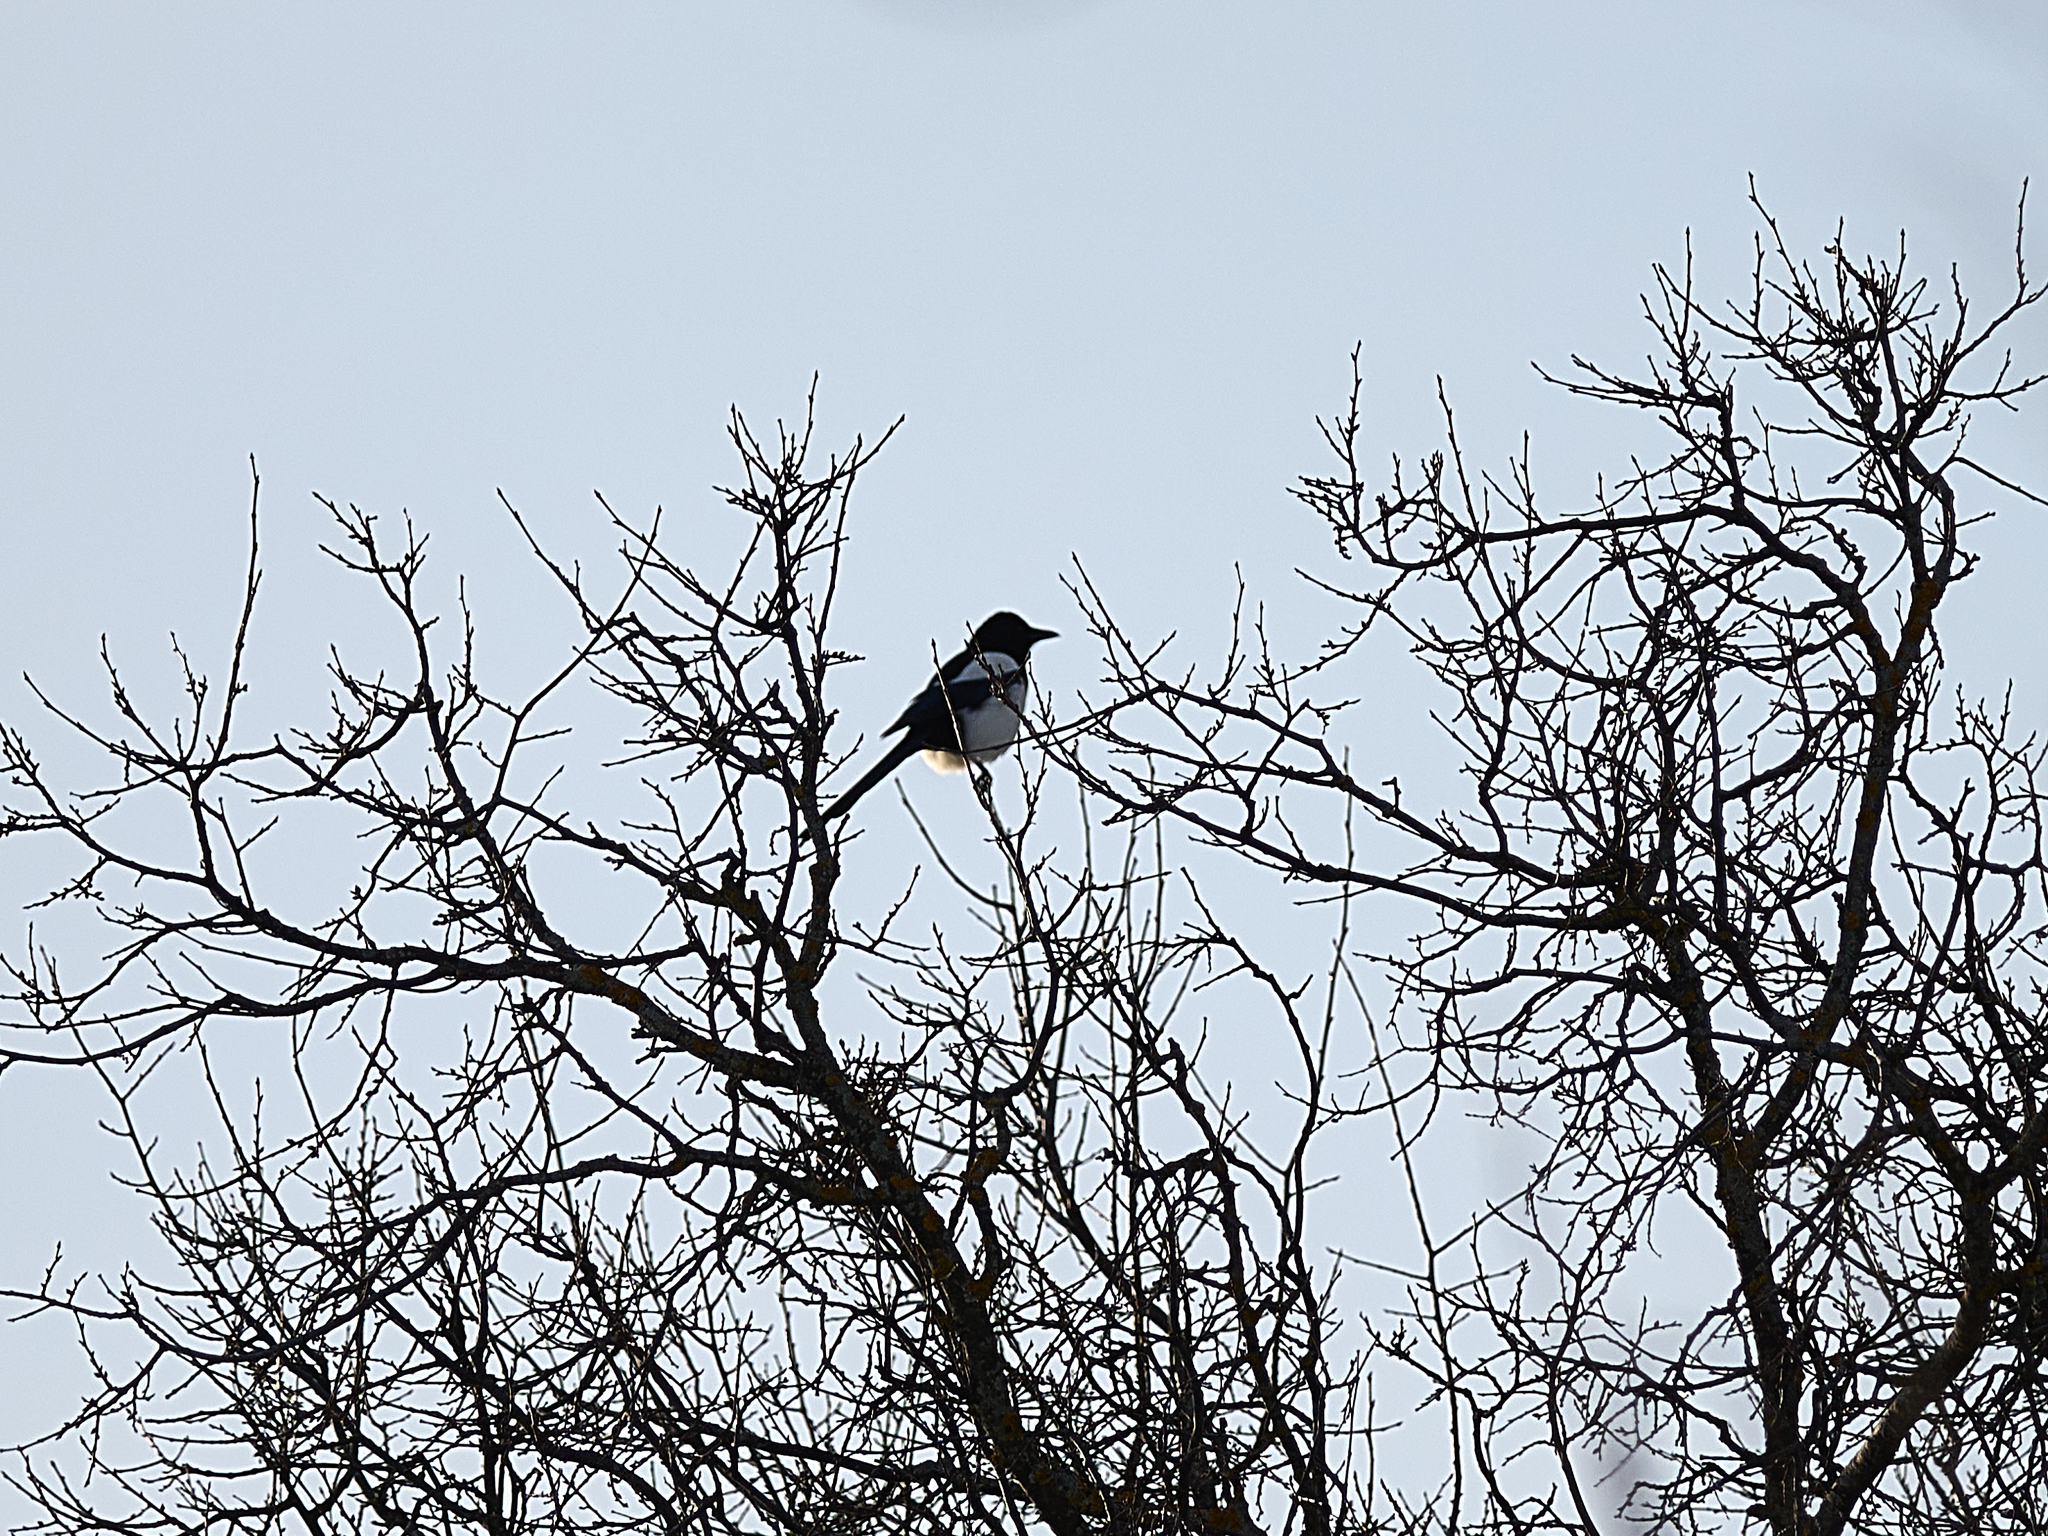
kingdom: Animalia
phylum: Chordata
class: Aves
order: Passeriformes
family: Corvidae
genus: Pica
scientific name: Pica pica
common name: Eurasian magpie
